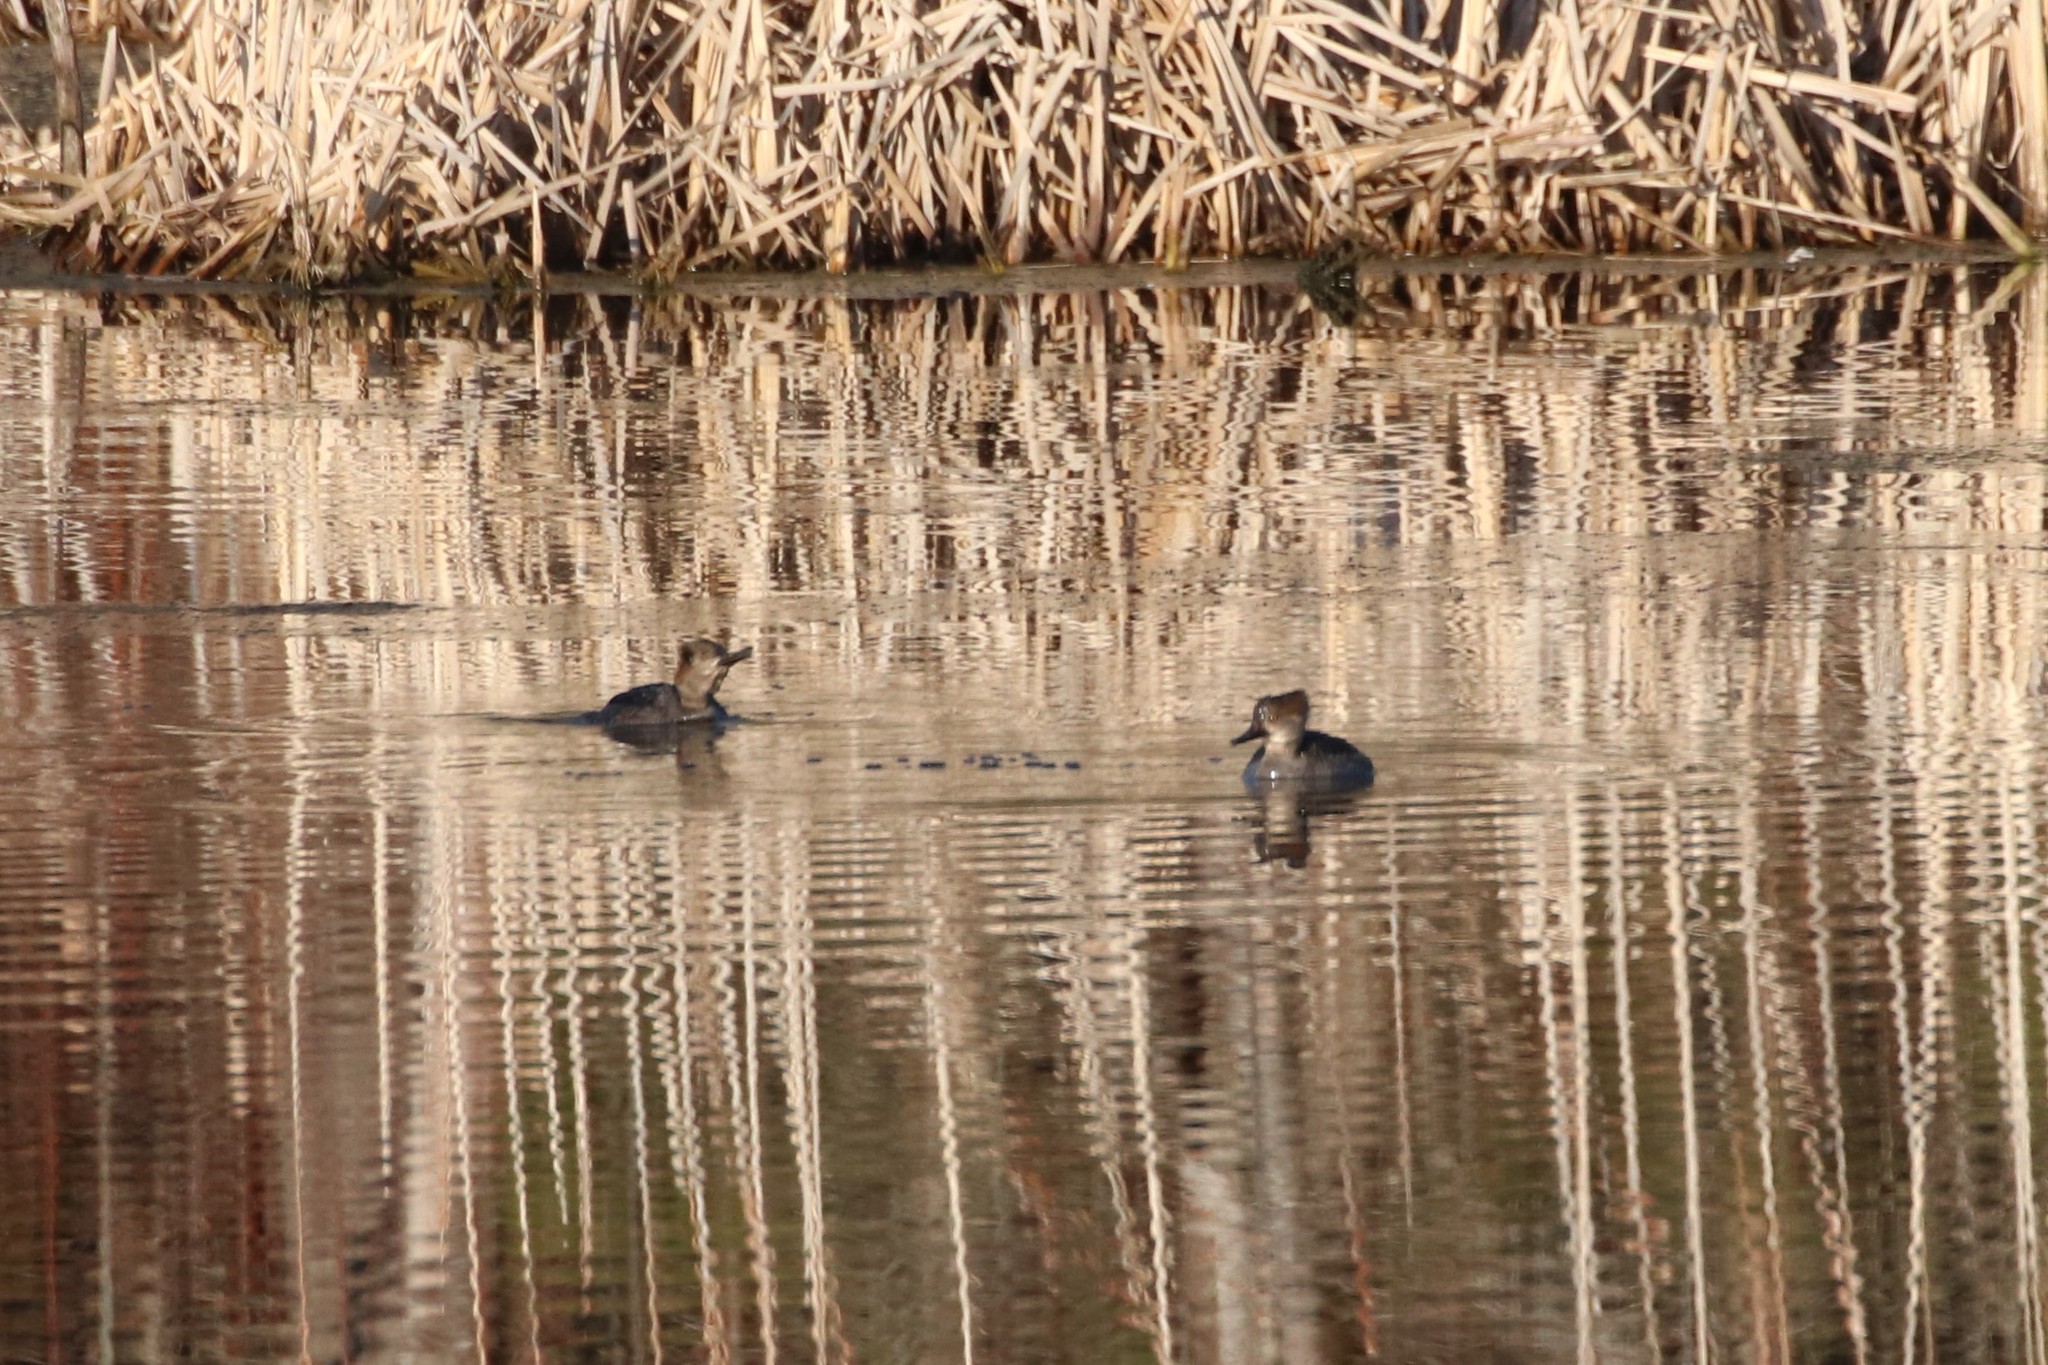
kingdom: Animalia
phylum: Chordata
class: Aves
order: Anseriformes
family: Anatidae
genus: Lophodytes
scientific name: Lophodytes cucullatus
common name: Hooded merganser
